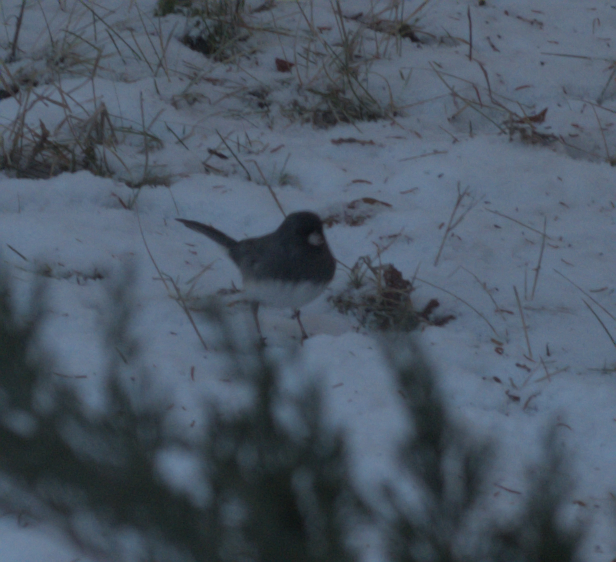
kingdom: Animalia
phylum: Chordata
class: Aves
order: Passeriformes
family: Passerellidae
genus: Junco
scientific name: Junco hyemalis
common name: Dark-eyed junco
